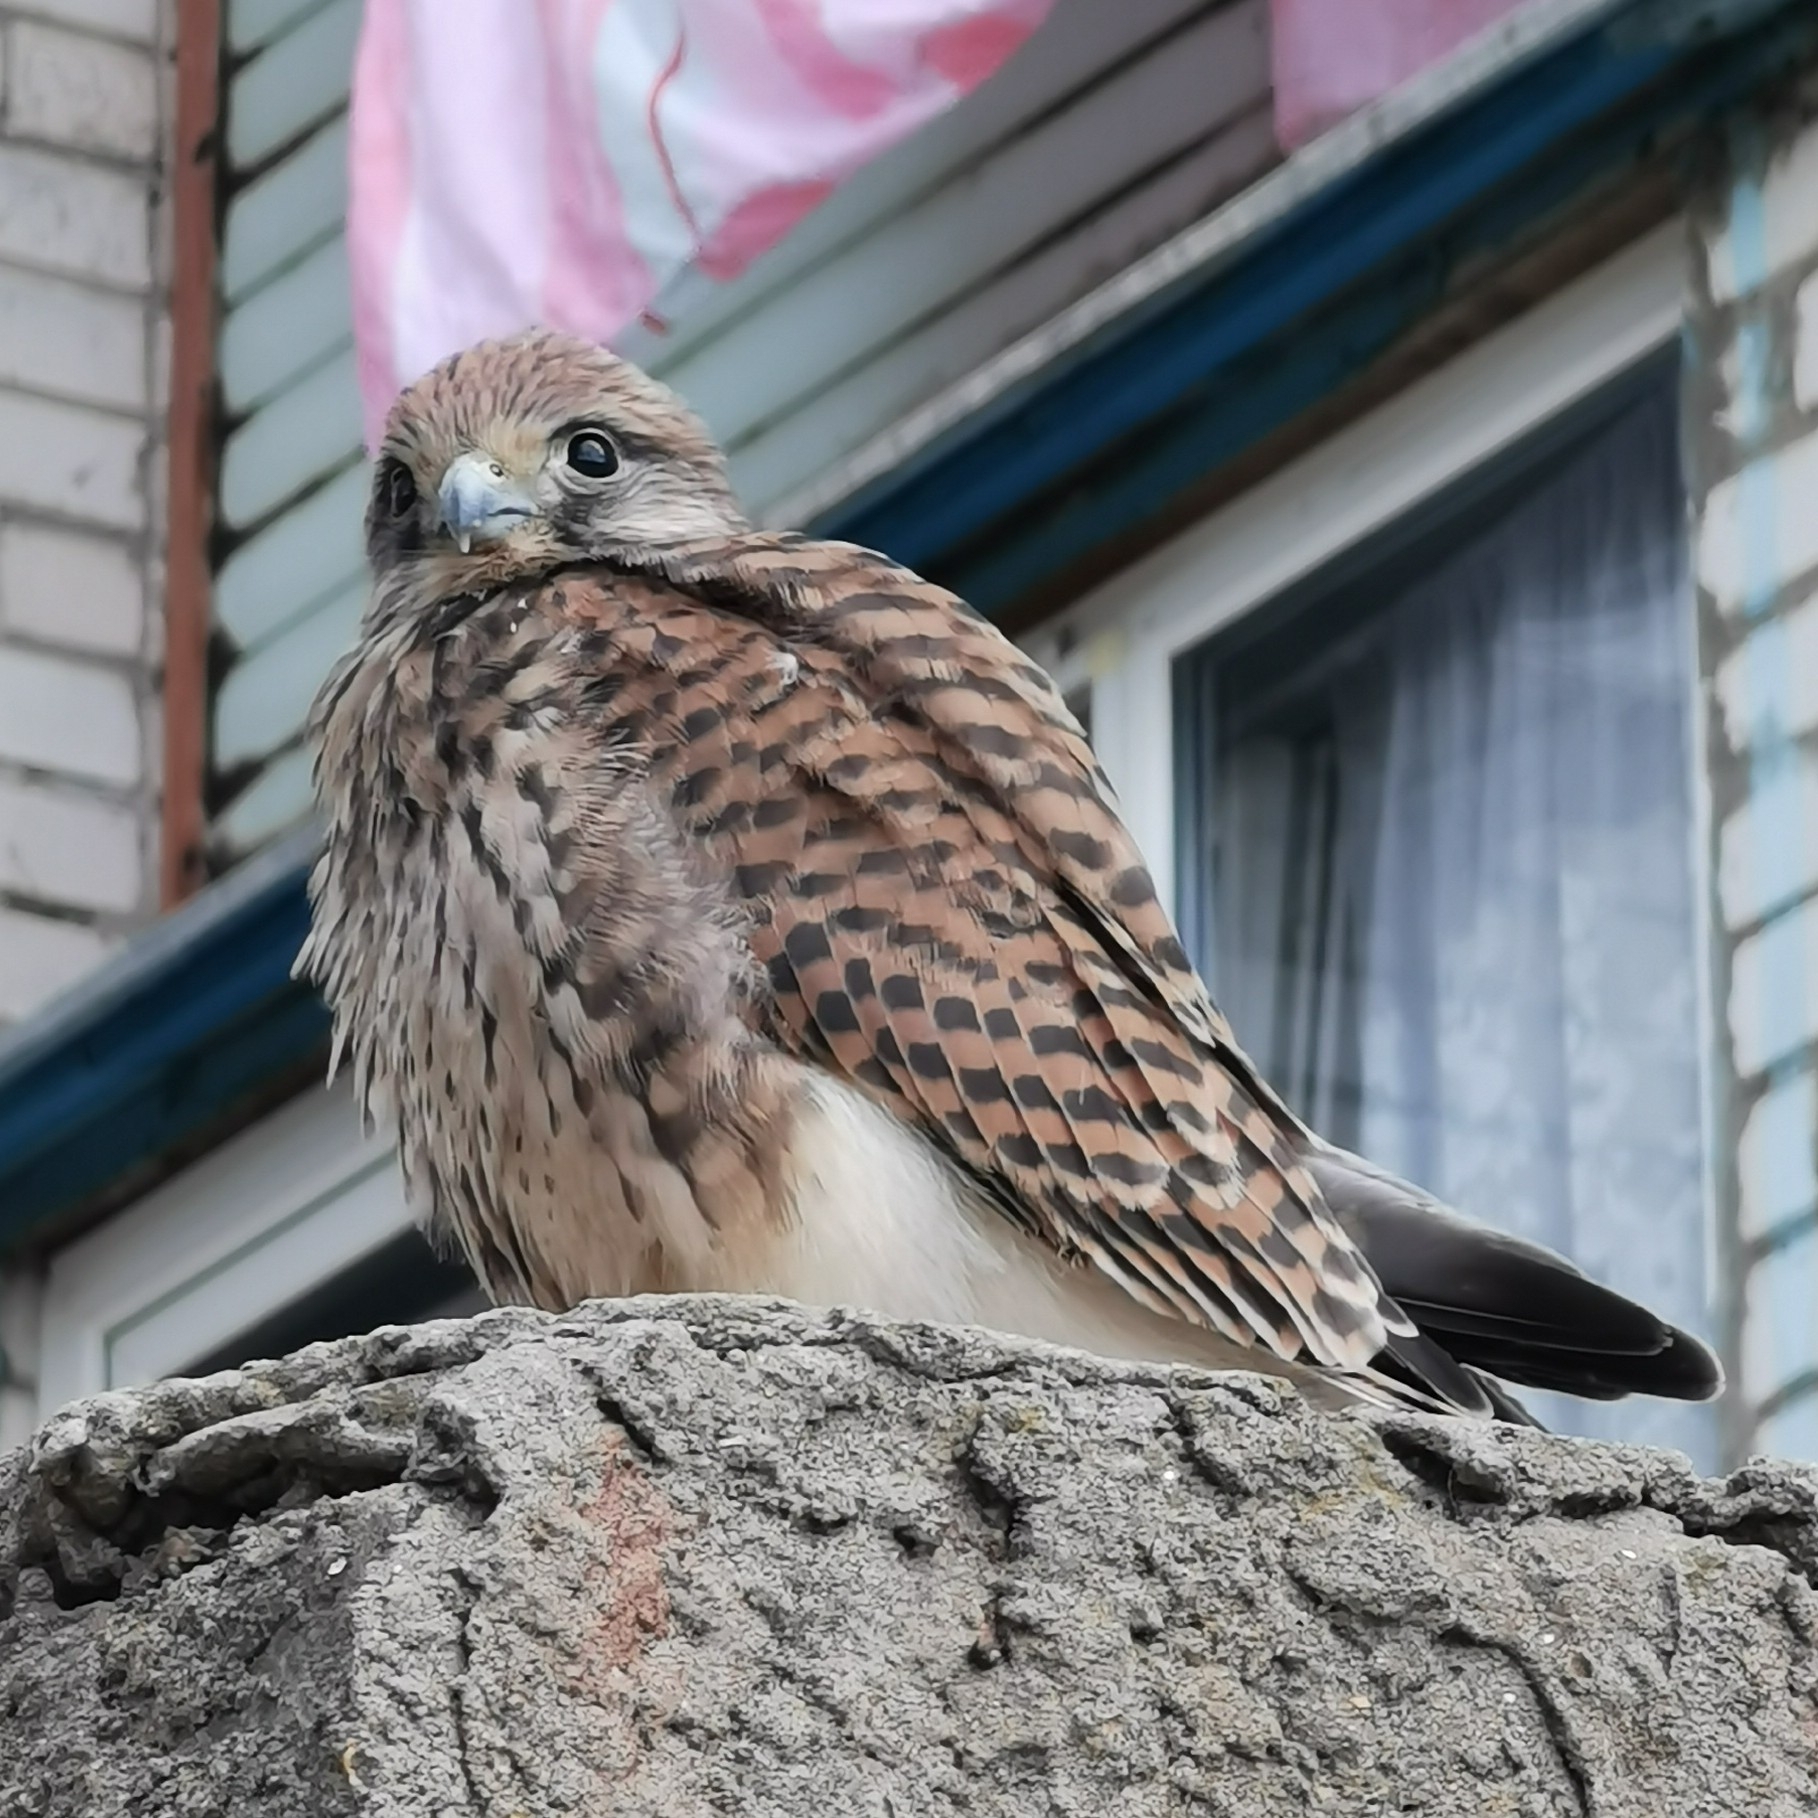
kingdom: Animalia
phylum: Chordata
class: Aves
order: Falconiformes
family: Falconidae
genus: Falco
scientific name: Falco tinnunculus
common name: Common kestrel
